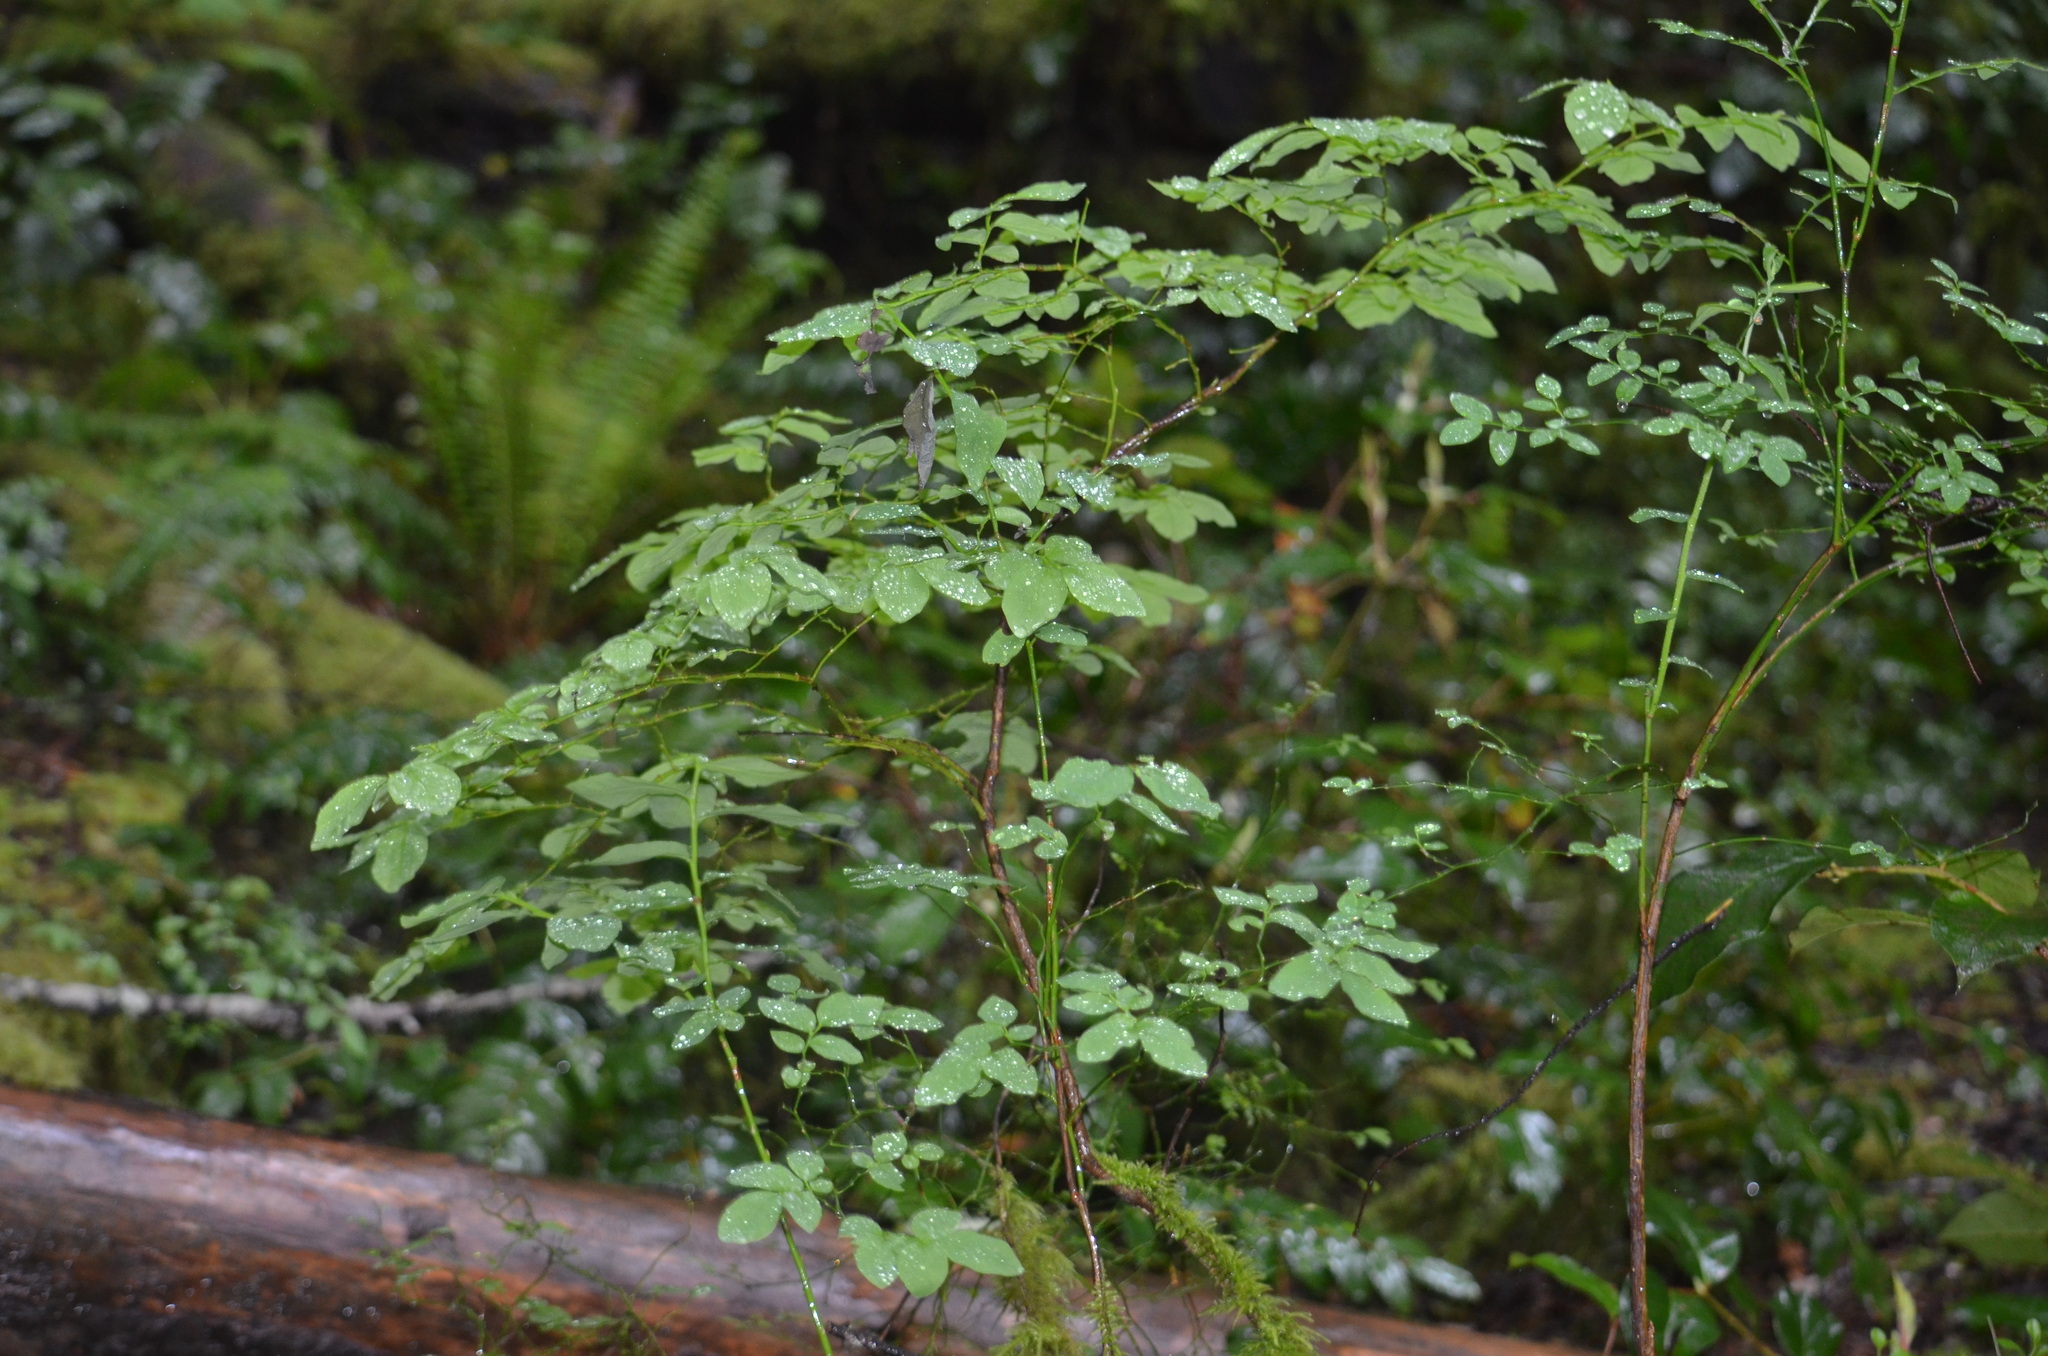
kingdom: Plantae
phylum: Tracheophyta
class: Magnoliopsida
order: Ericales
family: Ericaceae
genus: Vaccinium
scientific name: Vaccinium parvifolium
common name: Red-huckleberry
